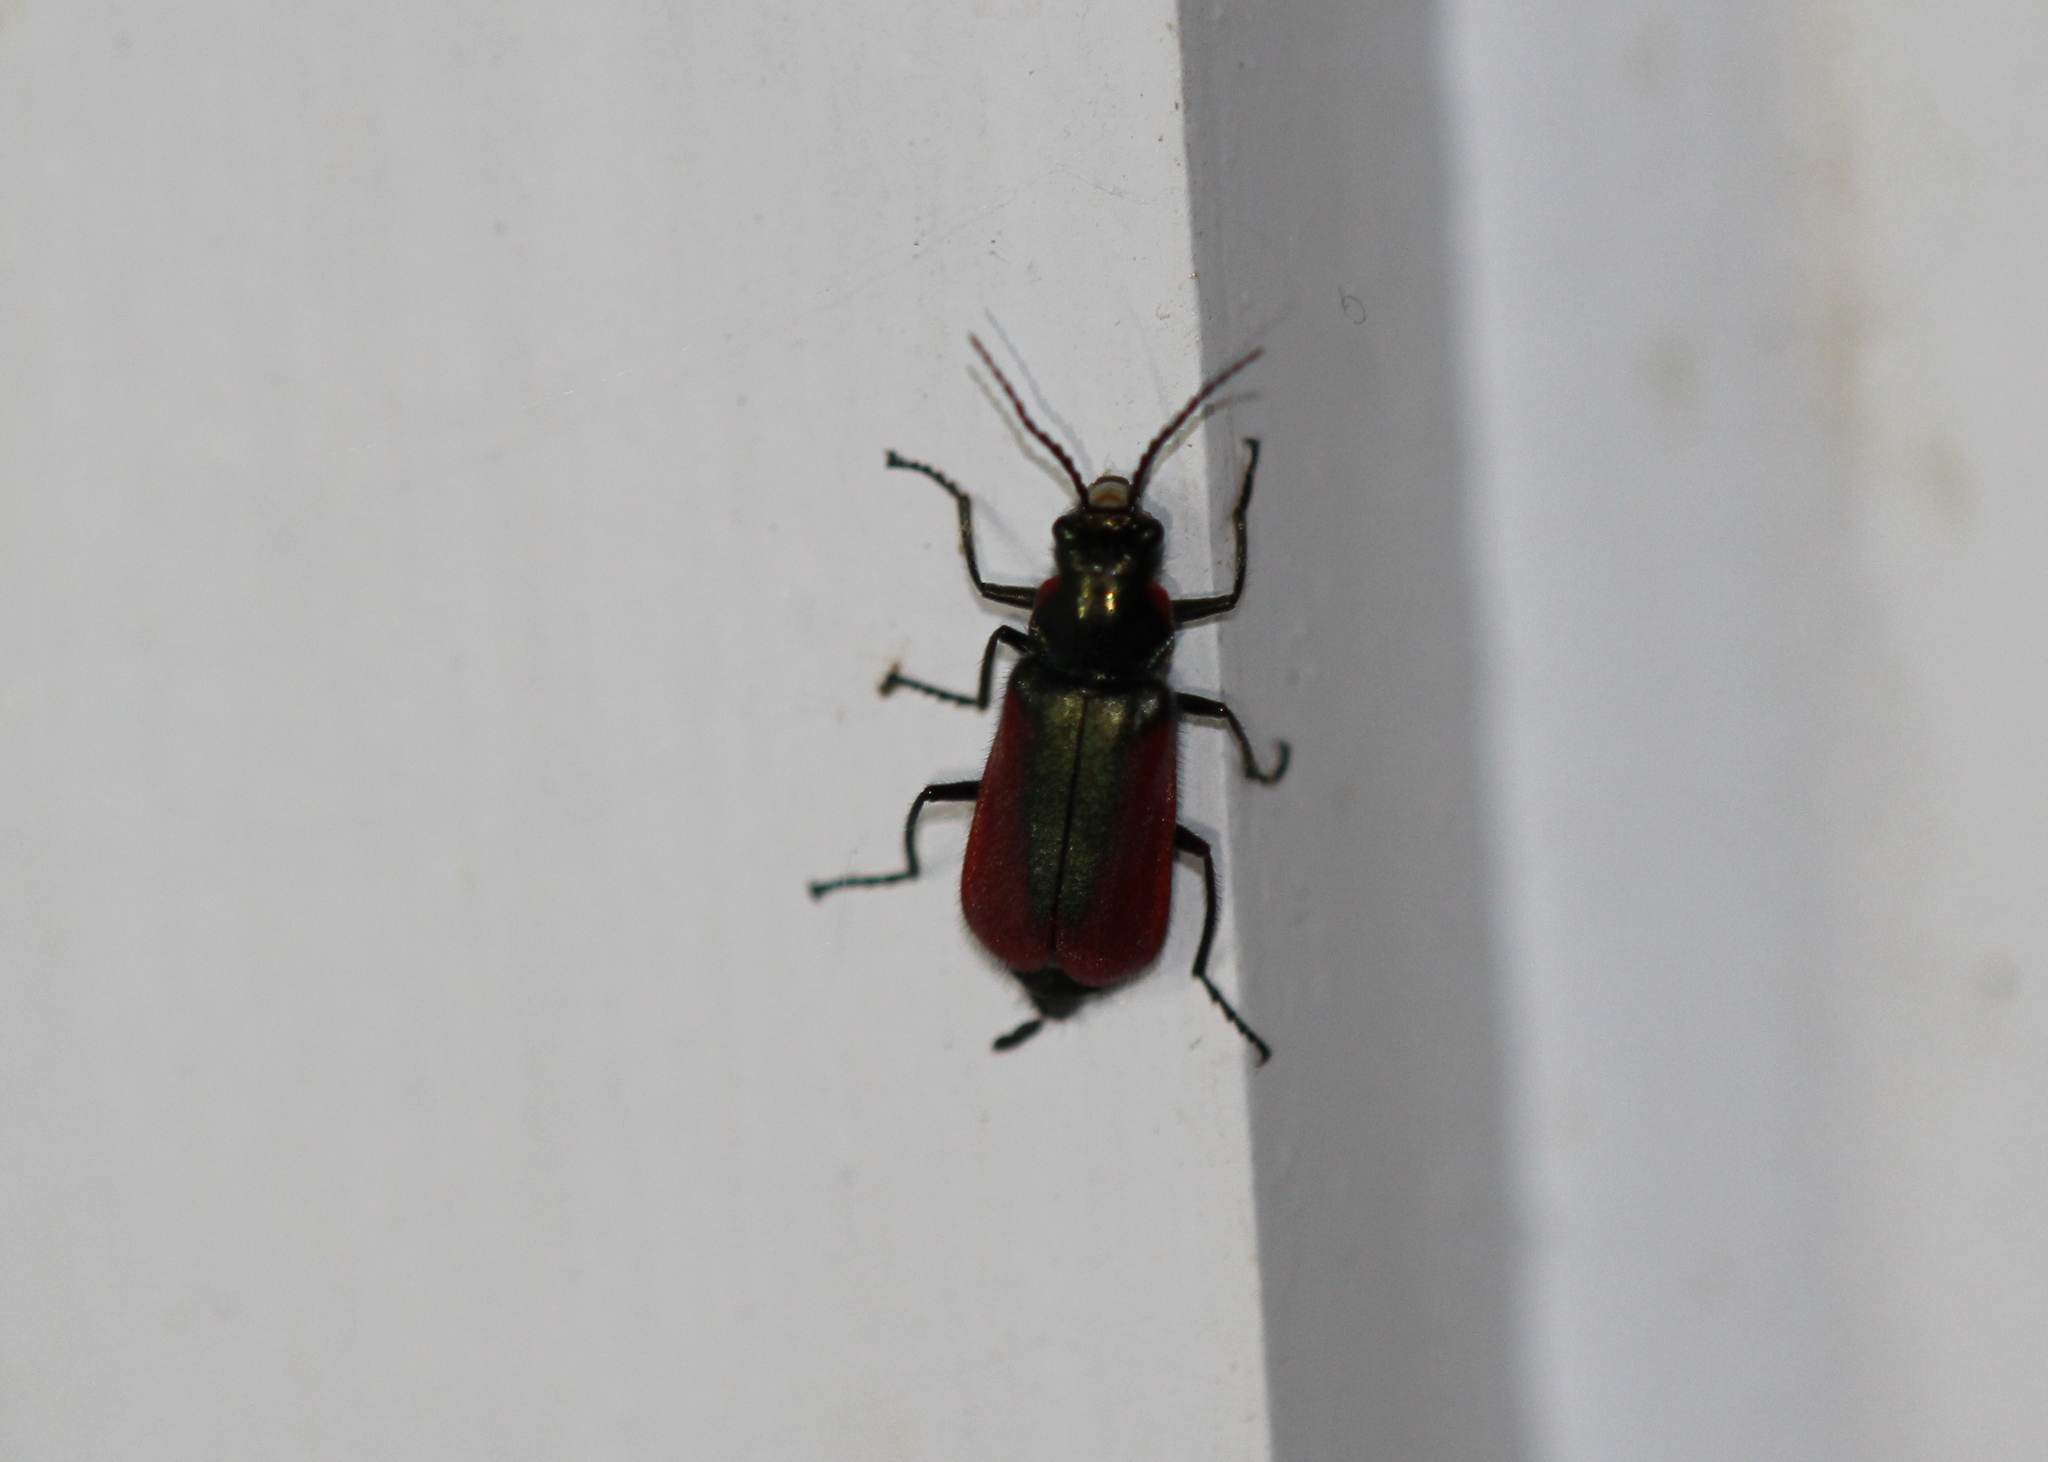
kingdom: Animalia
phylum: Arthropoda
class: Insecta
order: Coleoptera
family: Melyridae
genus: Malachius
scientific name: Malachius aeneus
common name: Scarlet malachite beetle
